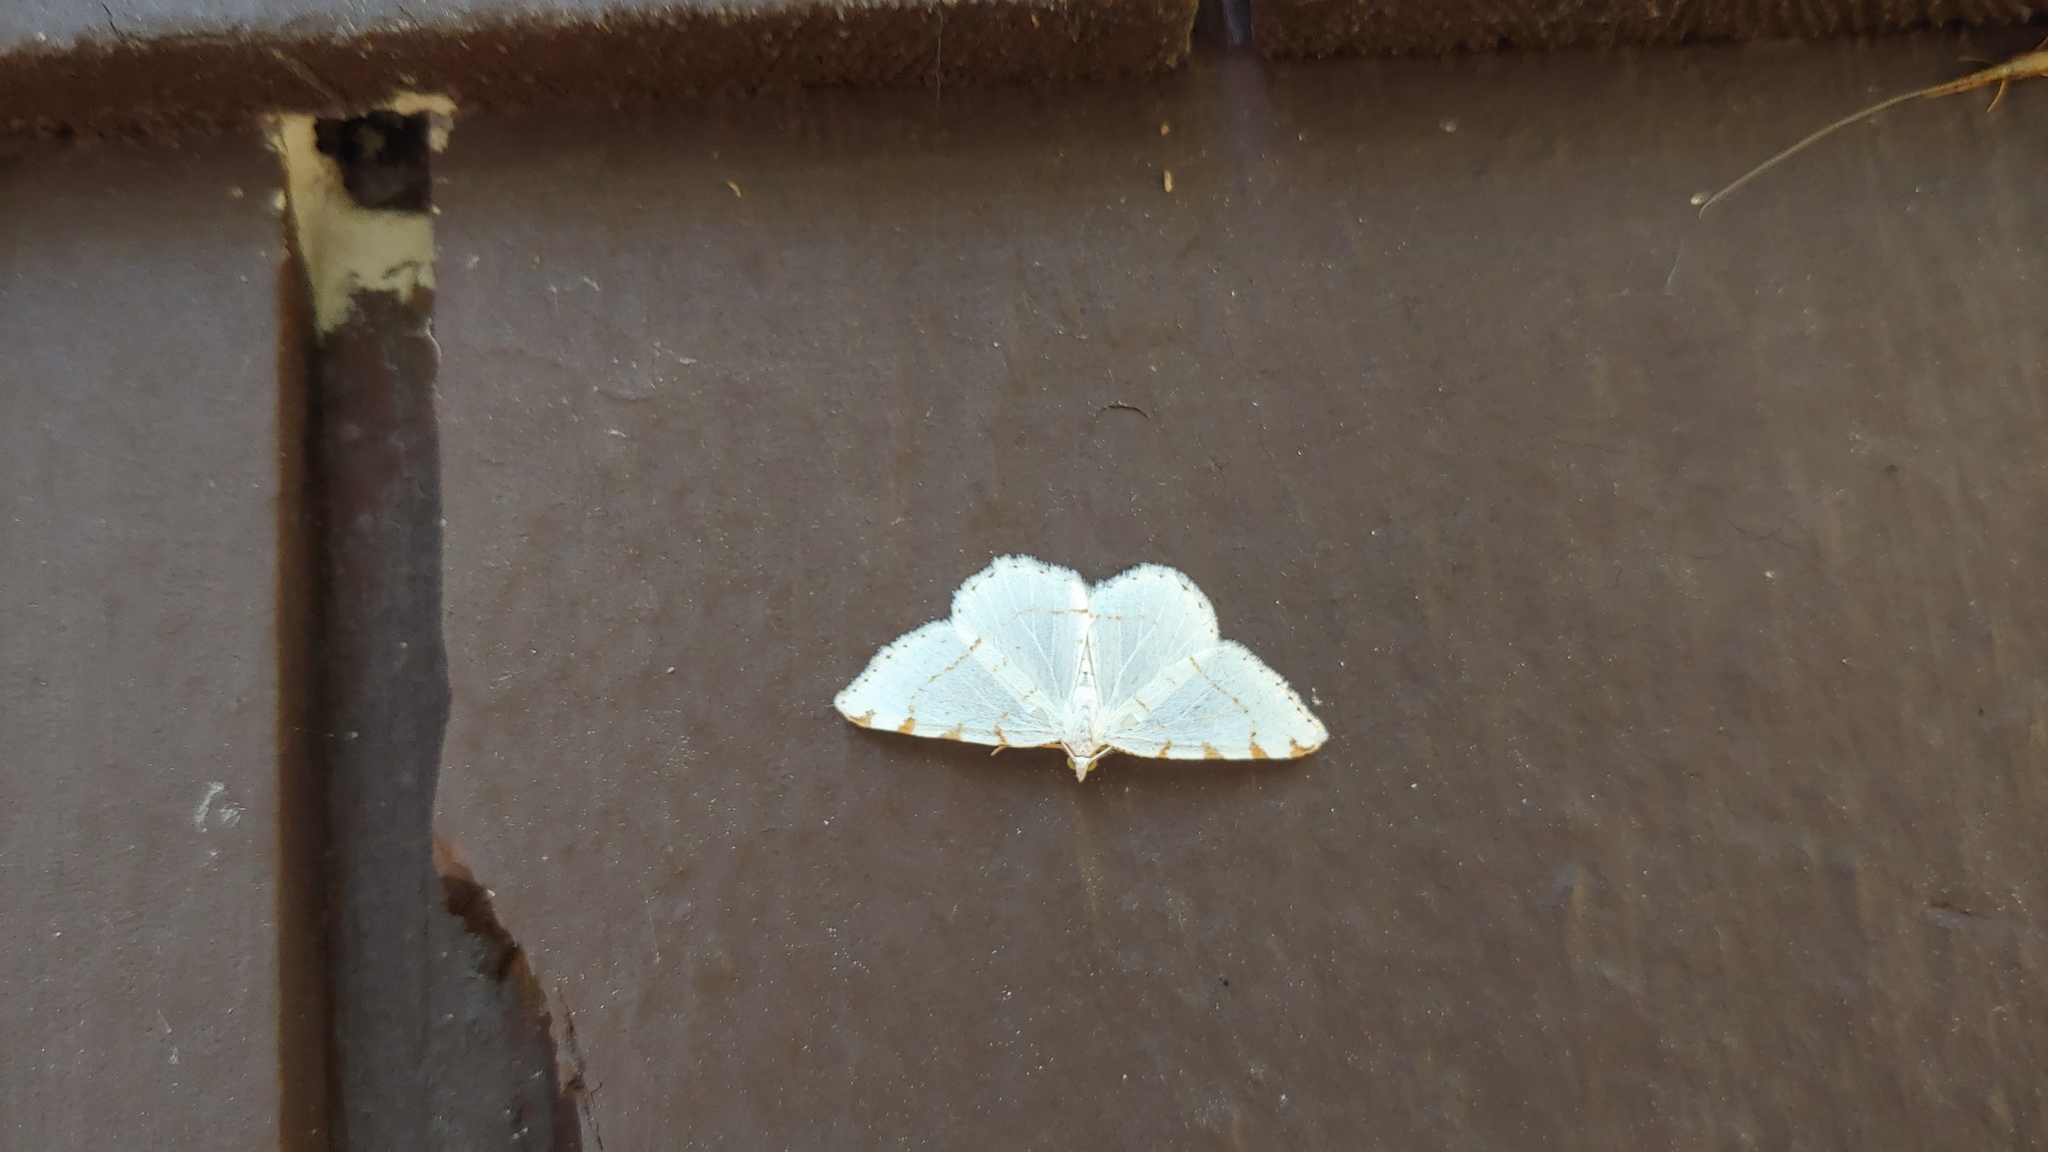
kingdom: Animalia
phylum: Arthropoda
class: Insecta
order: Lepidoptera
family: Geometridae
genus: Macaria
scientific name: Macaria pustularia
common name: Lesser maple spanworm moth
